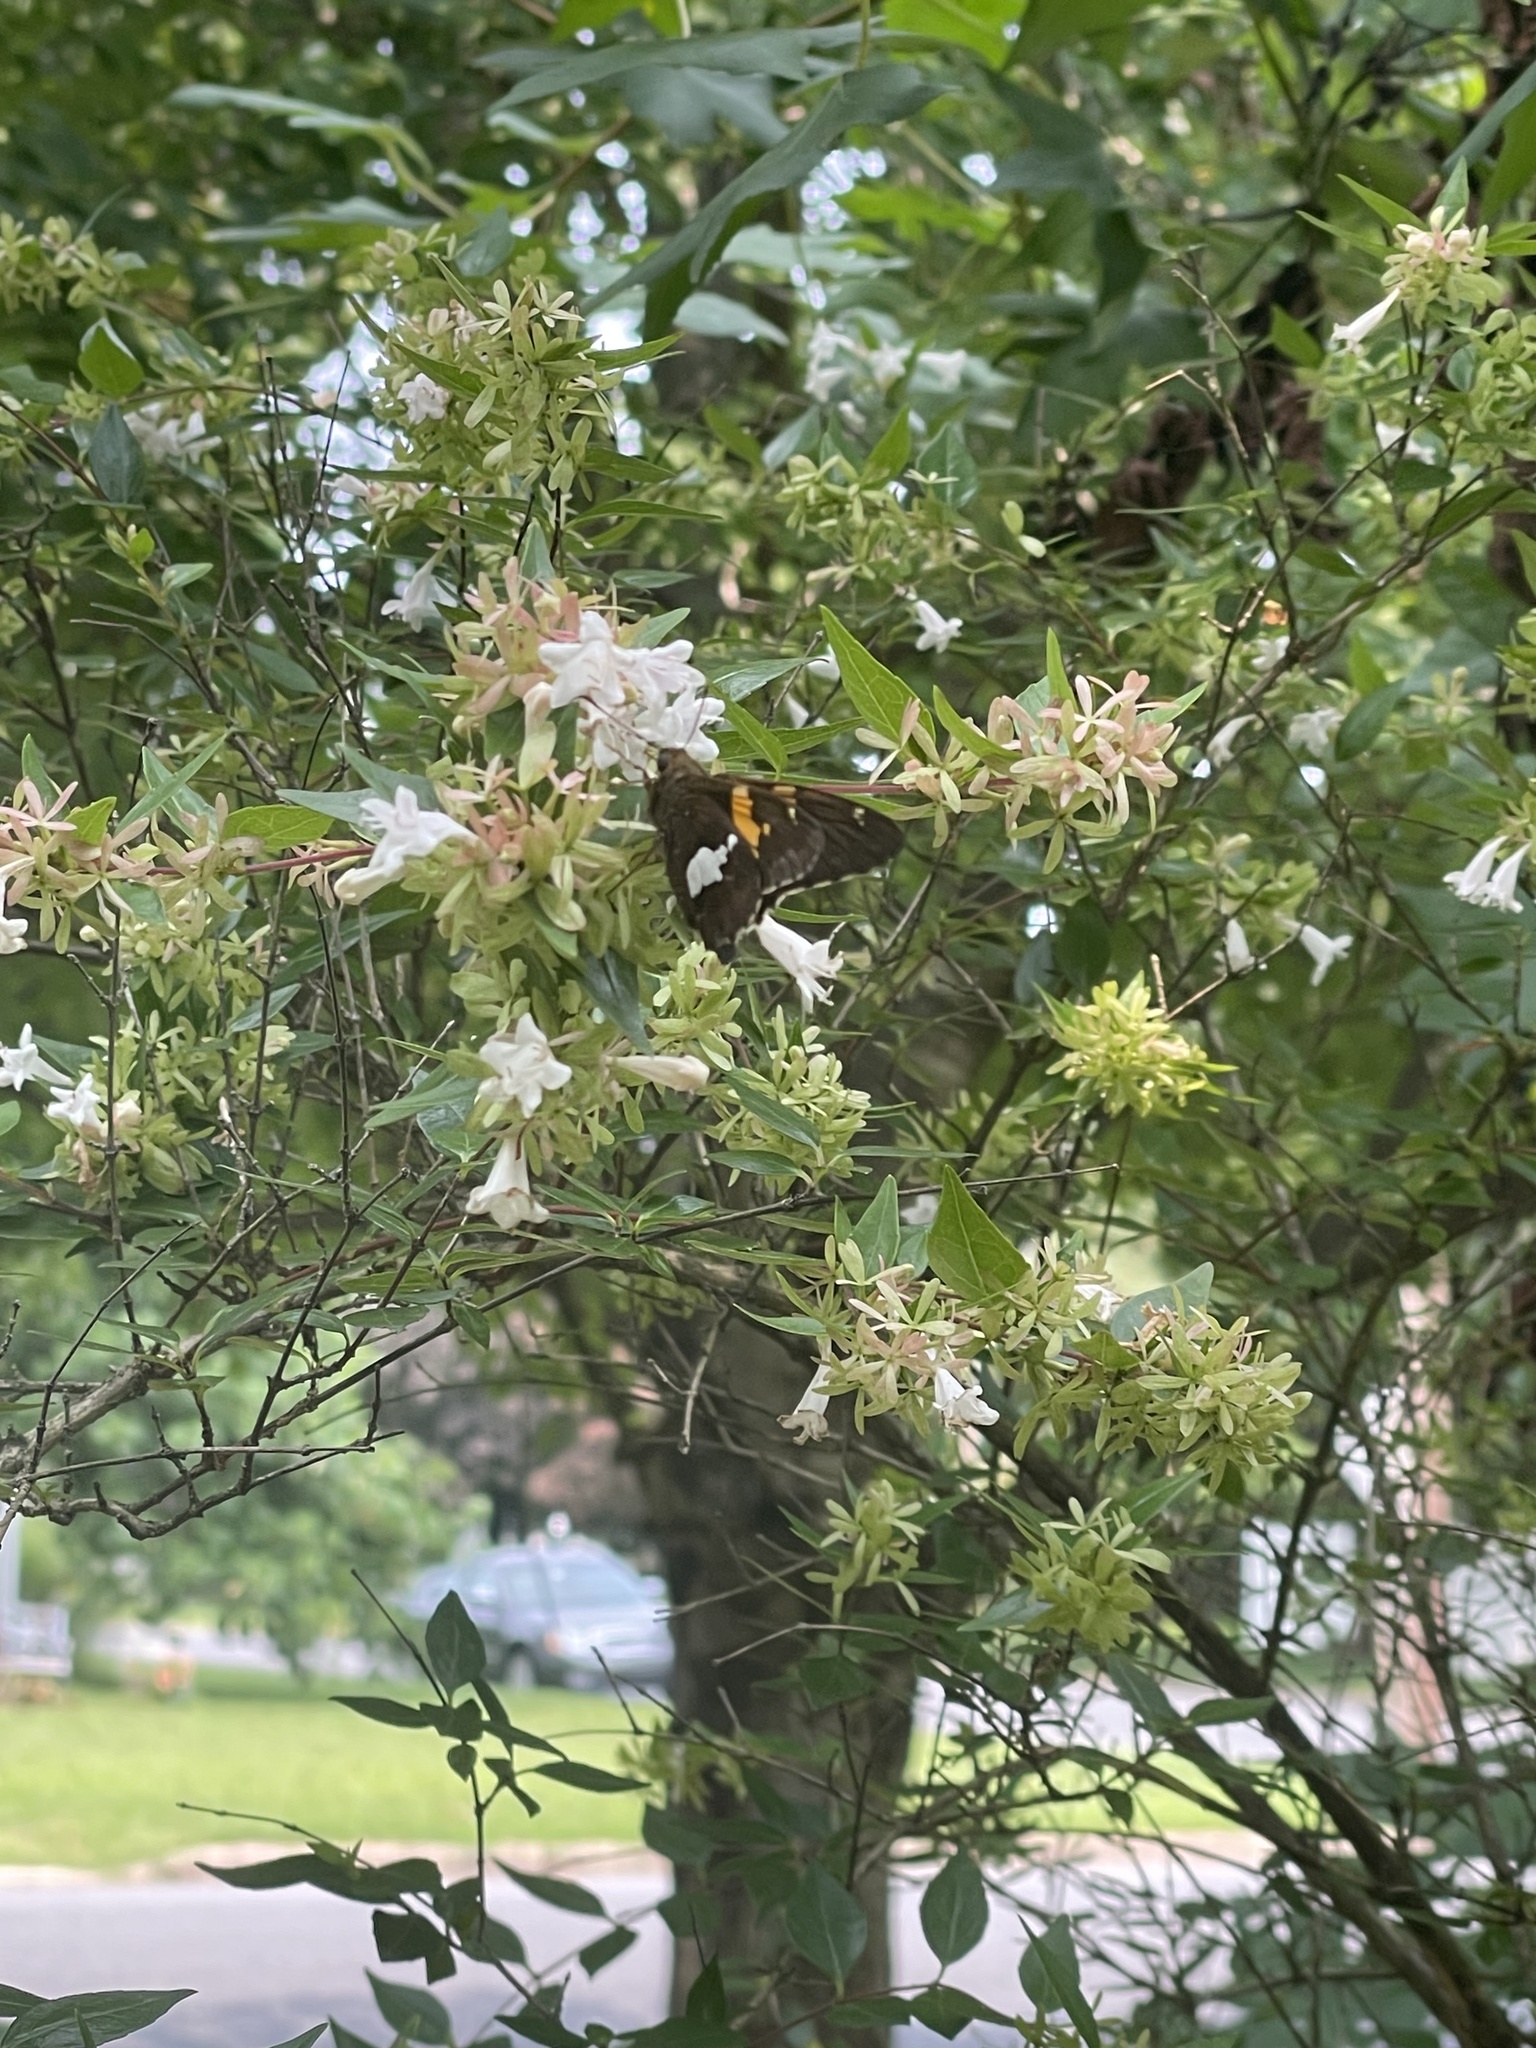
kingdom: Animalia
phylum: Arthropoda
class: Insecta
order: Lepidoptera
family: Hesperiidae
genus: Epargyreus
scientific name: Epargyreus clarus
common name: Silver-spotted skipper
